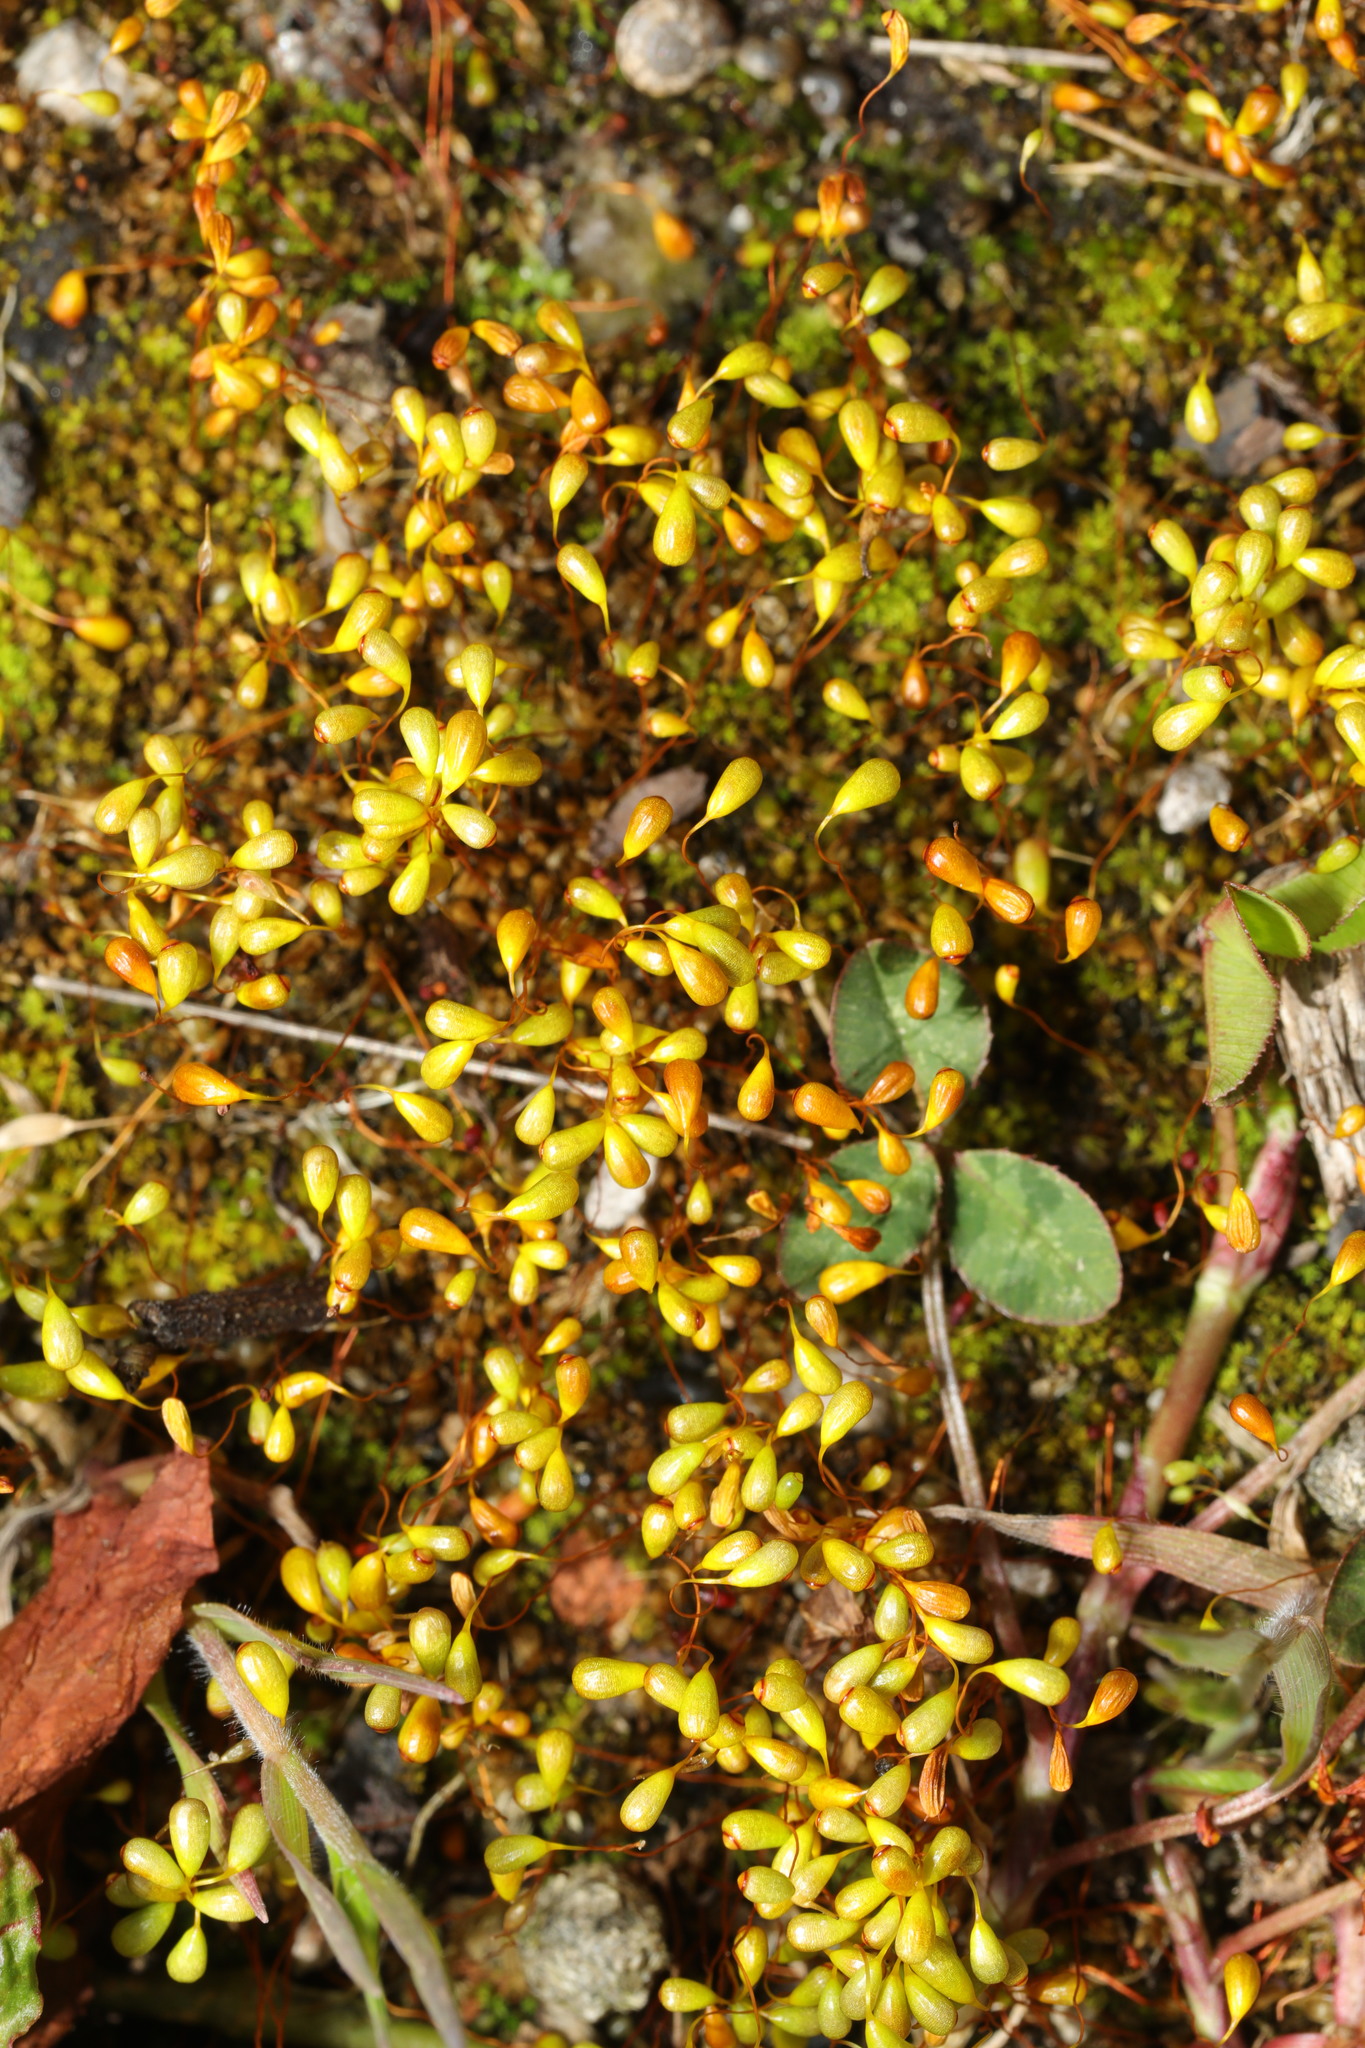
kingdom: Plantae
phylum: Bryophyta
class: Bryopsida
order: Funariales
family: Funariaceae
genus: Funaria
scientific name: Funaria hygrometrica
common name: Common cord moss
